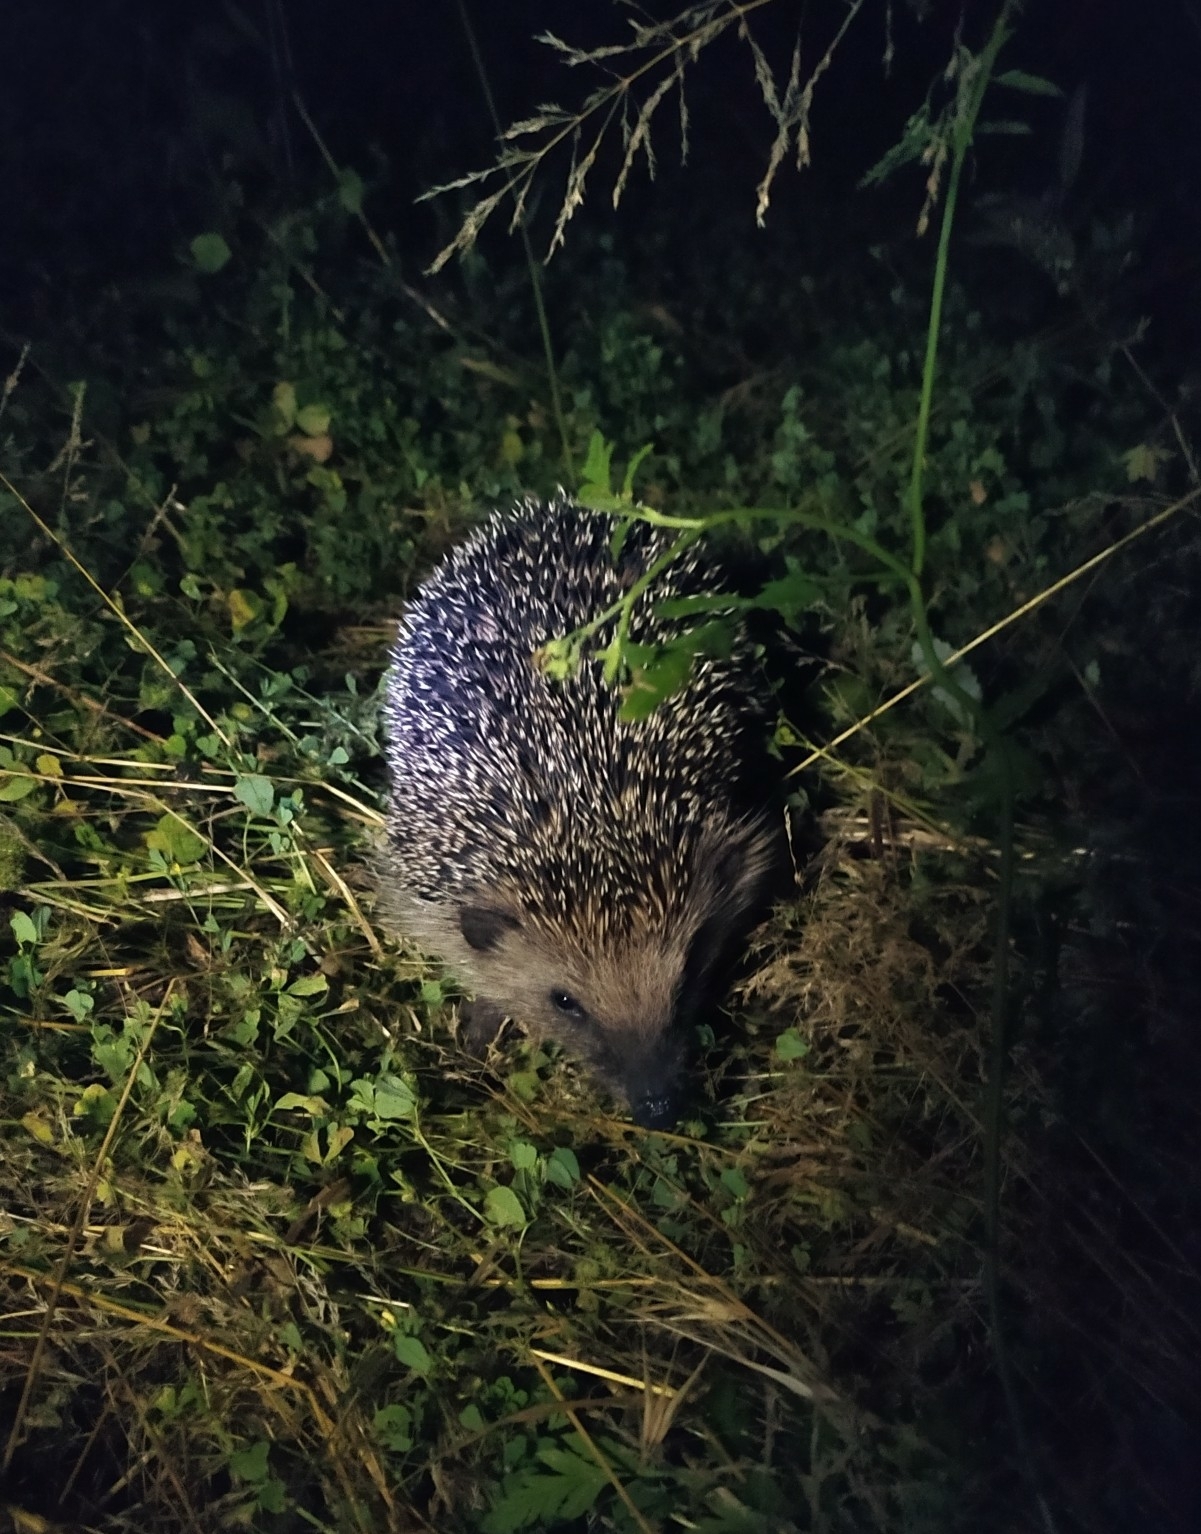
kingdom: Animalia
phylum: Chordata
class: Mammalia
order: Erinaceomorpha
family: Erinaceidae
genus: Erinaceus
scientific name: Erinaceus europaeus
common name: West european hedgehog
